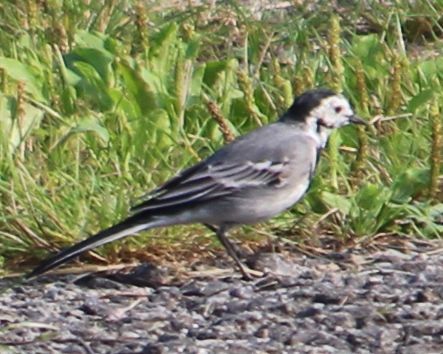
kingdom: Animalia
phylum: Chordata
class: Aves
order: Passeriformes
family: Motacillidae
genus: Motacilla
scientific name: Motacilla alba
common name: White wagtail
